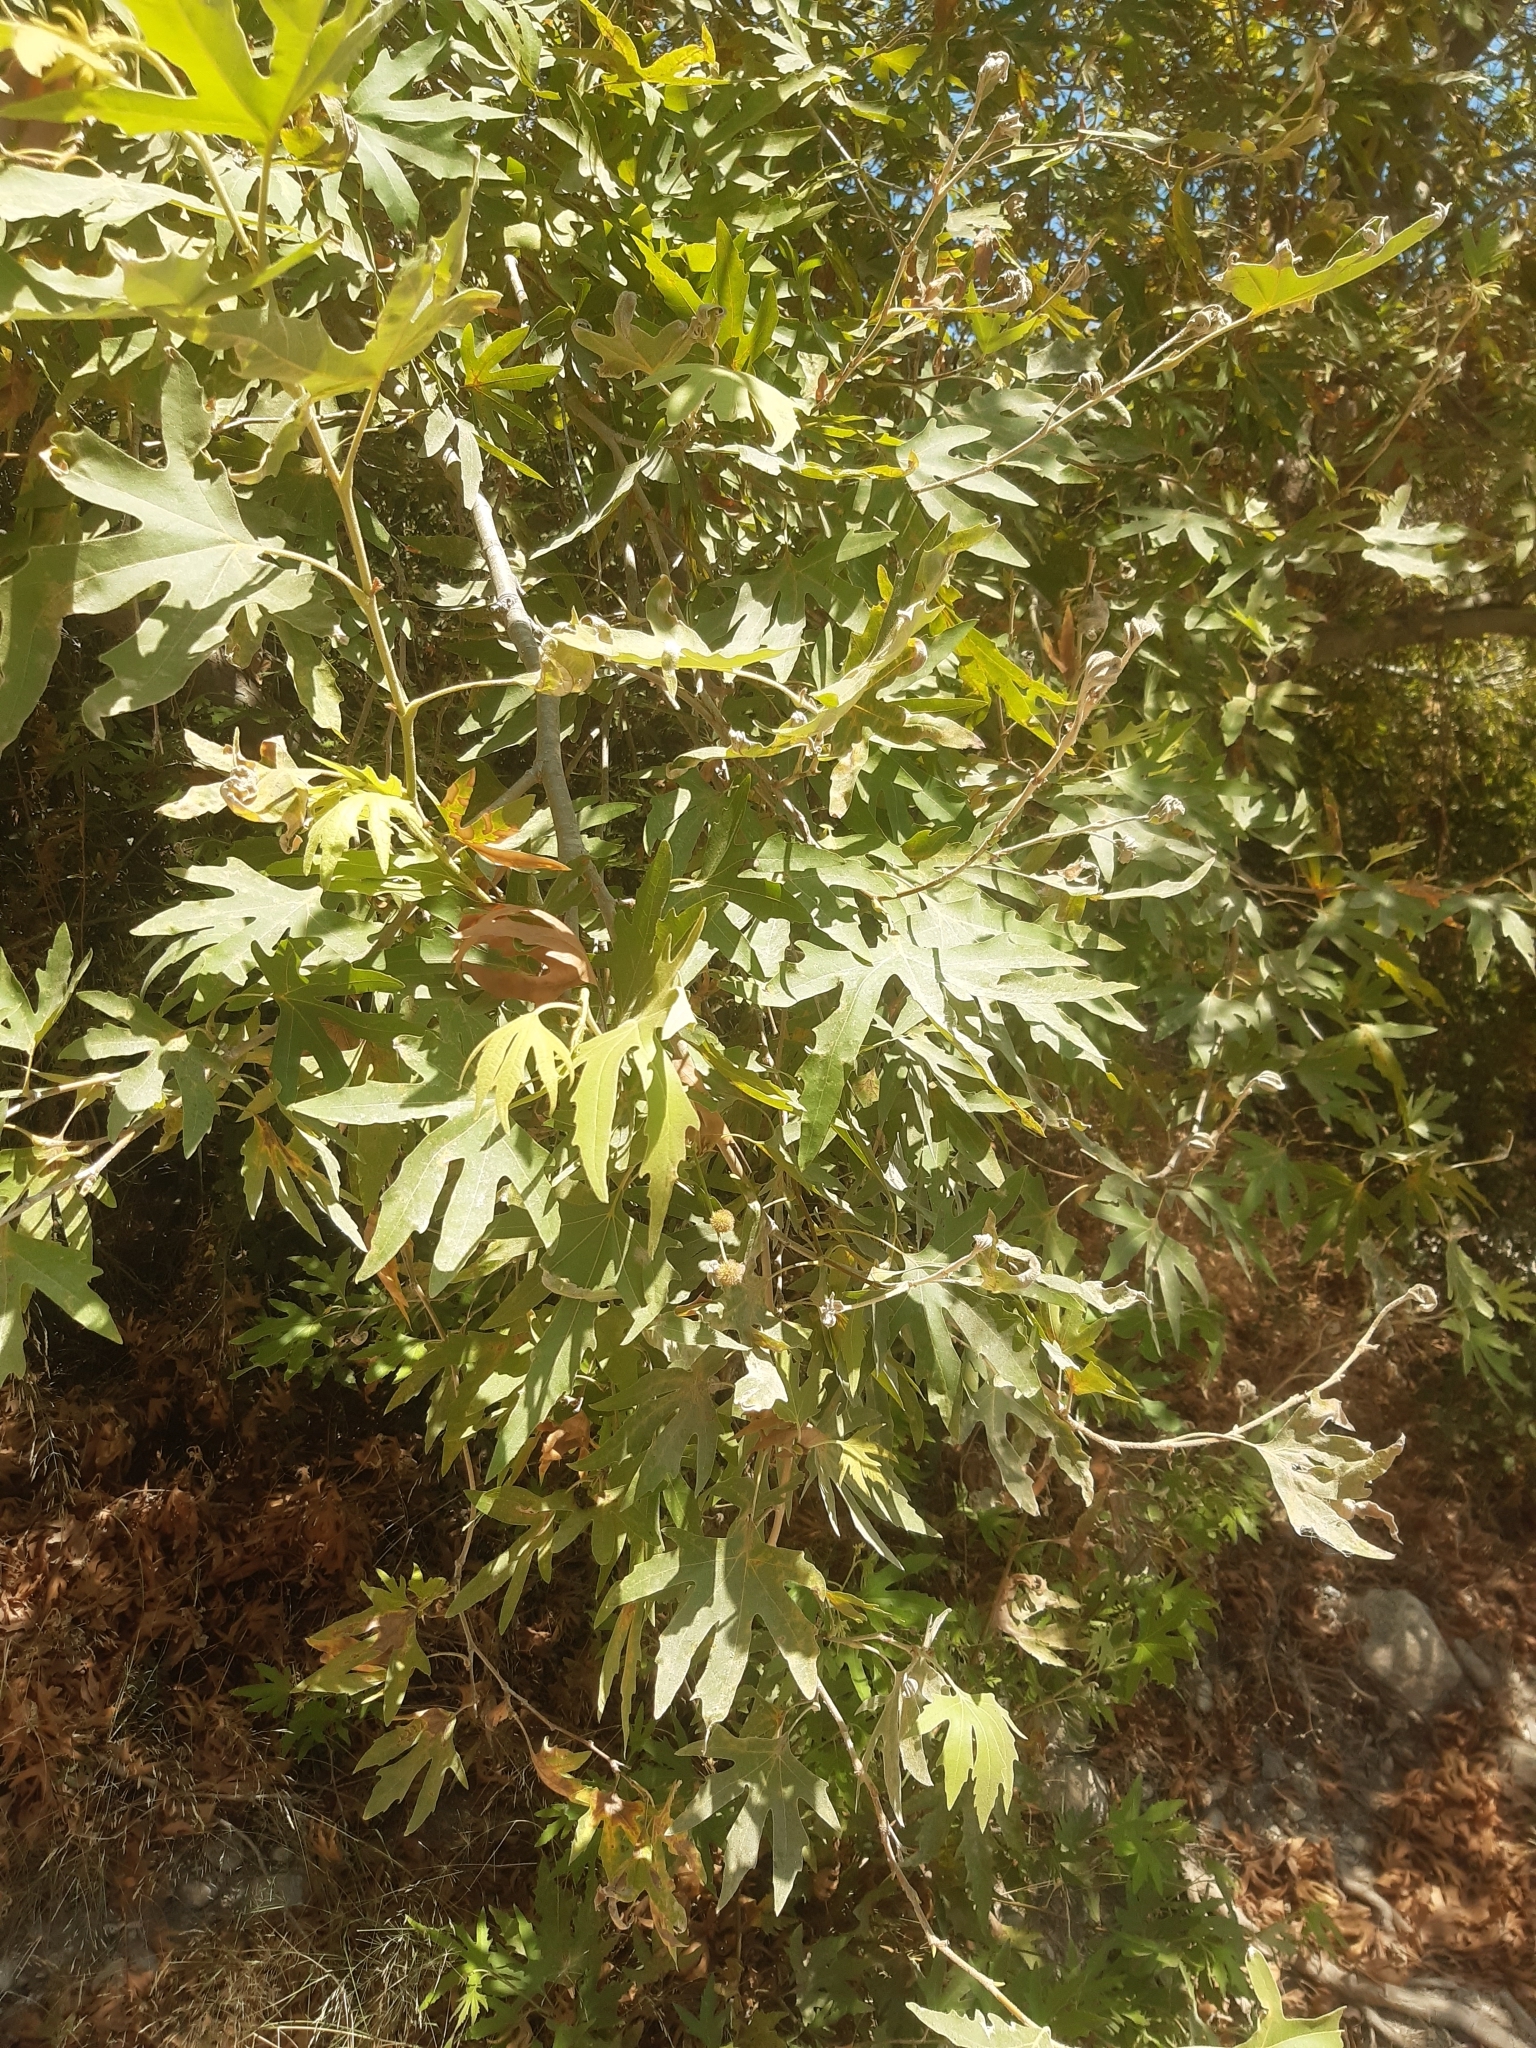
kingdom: Plantae
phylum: Tracheophyta
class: Magnoliopsida
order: Proteales
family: Platanaceae
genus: Platanus
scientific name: Platanus orientalis
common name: Oriental plane
